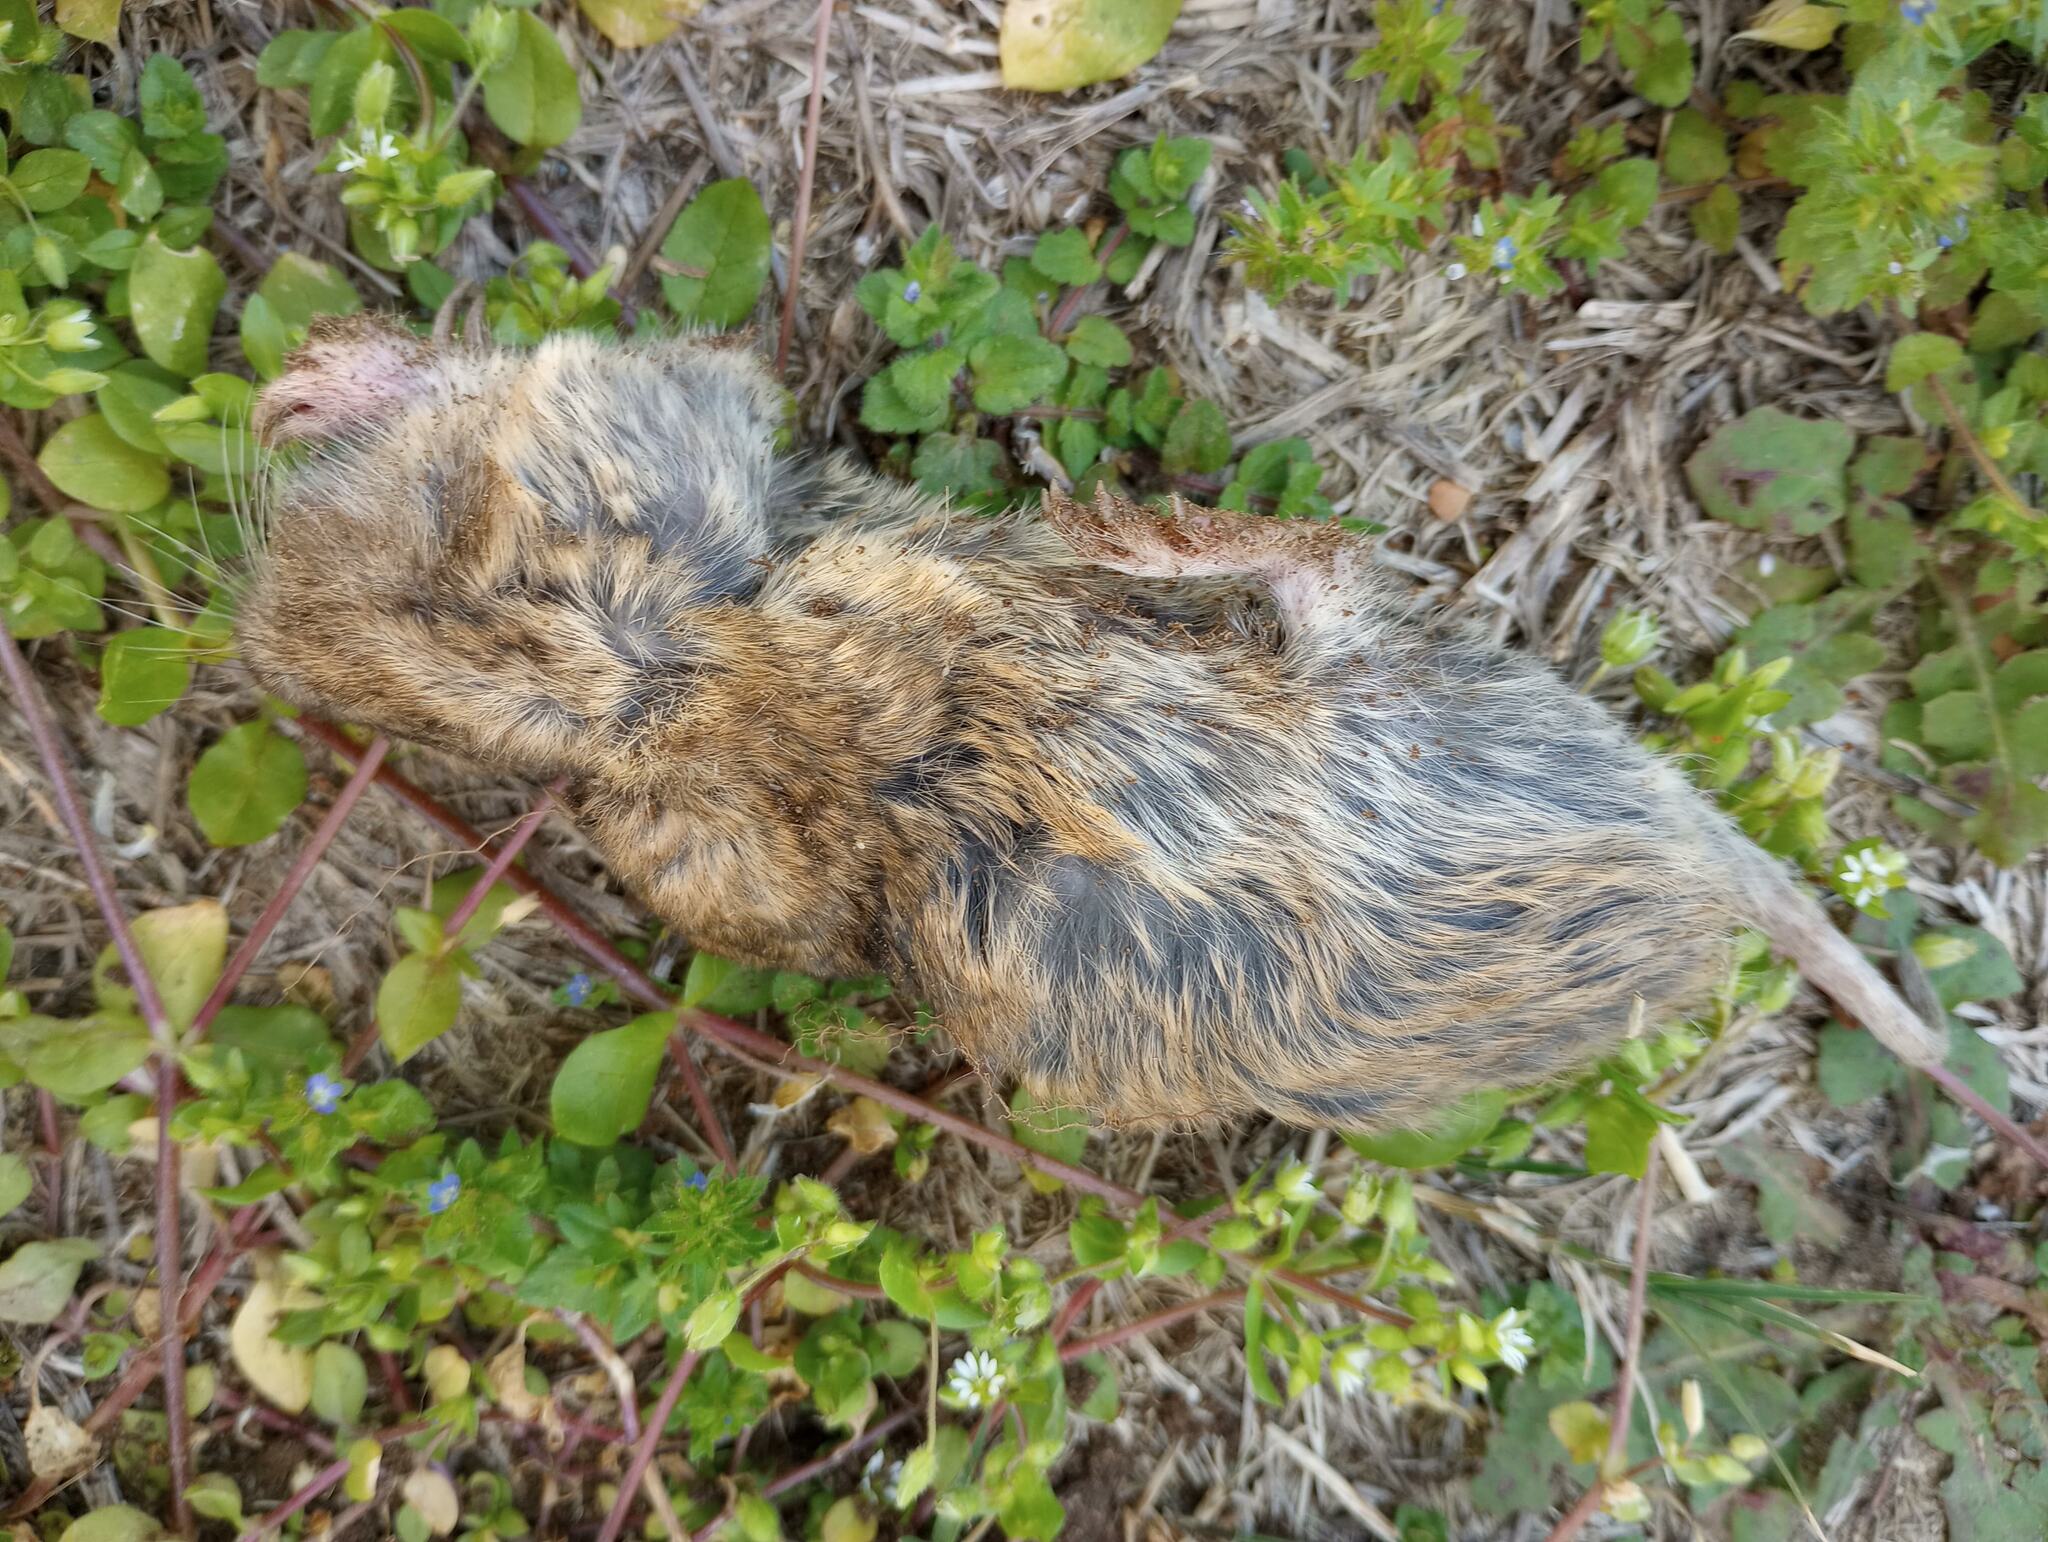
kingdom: Animalia
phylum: Chordata
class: Mammalia
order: Rodentia
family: Geomyidae
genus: Thomomys
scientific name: Thomomys bottae
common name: Botta's pocket gopher
